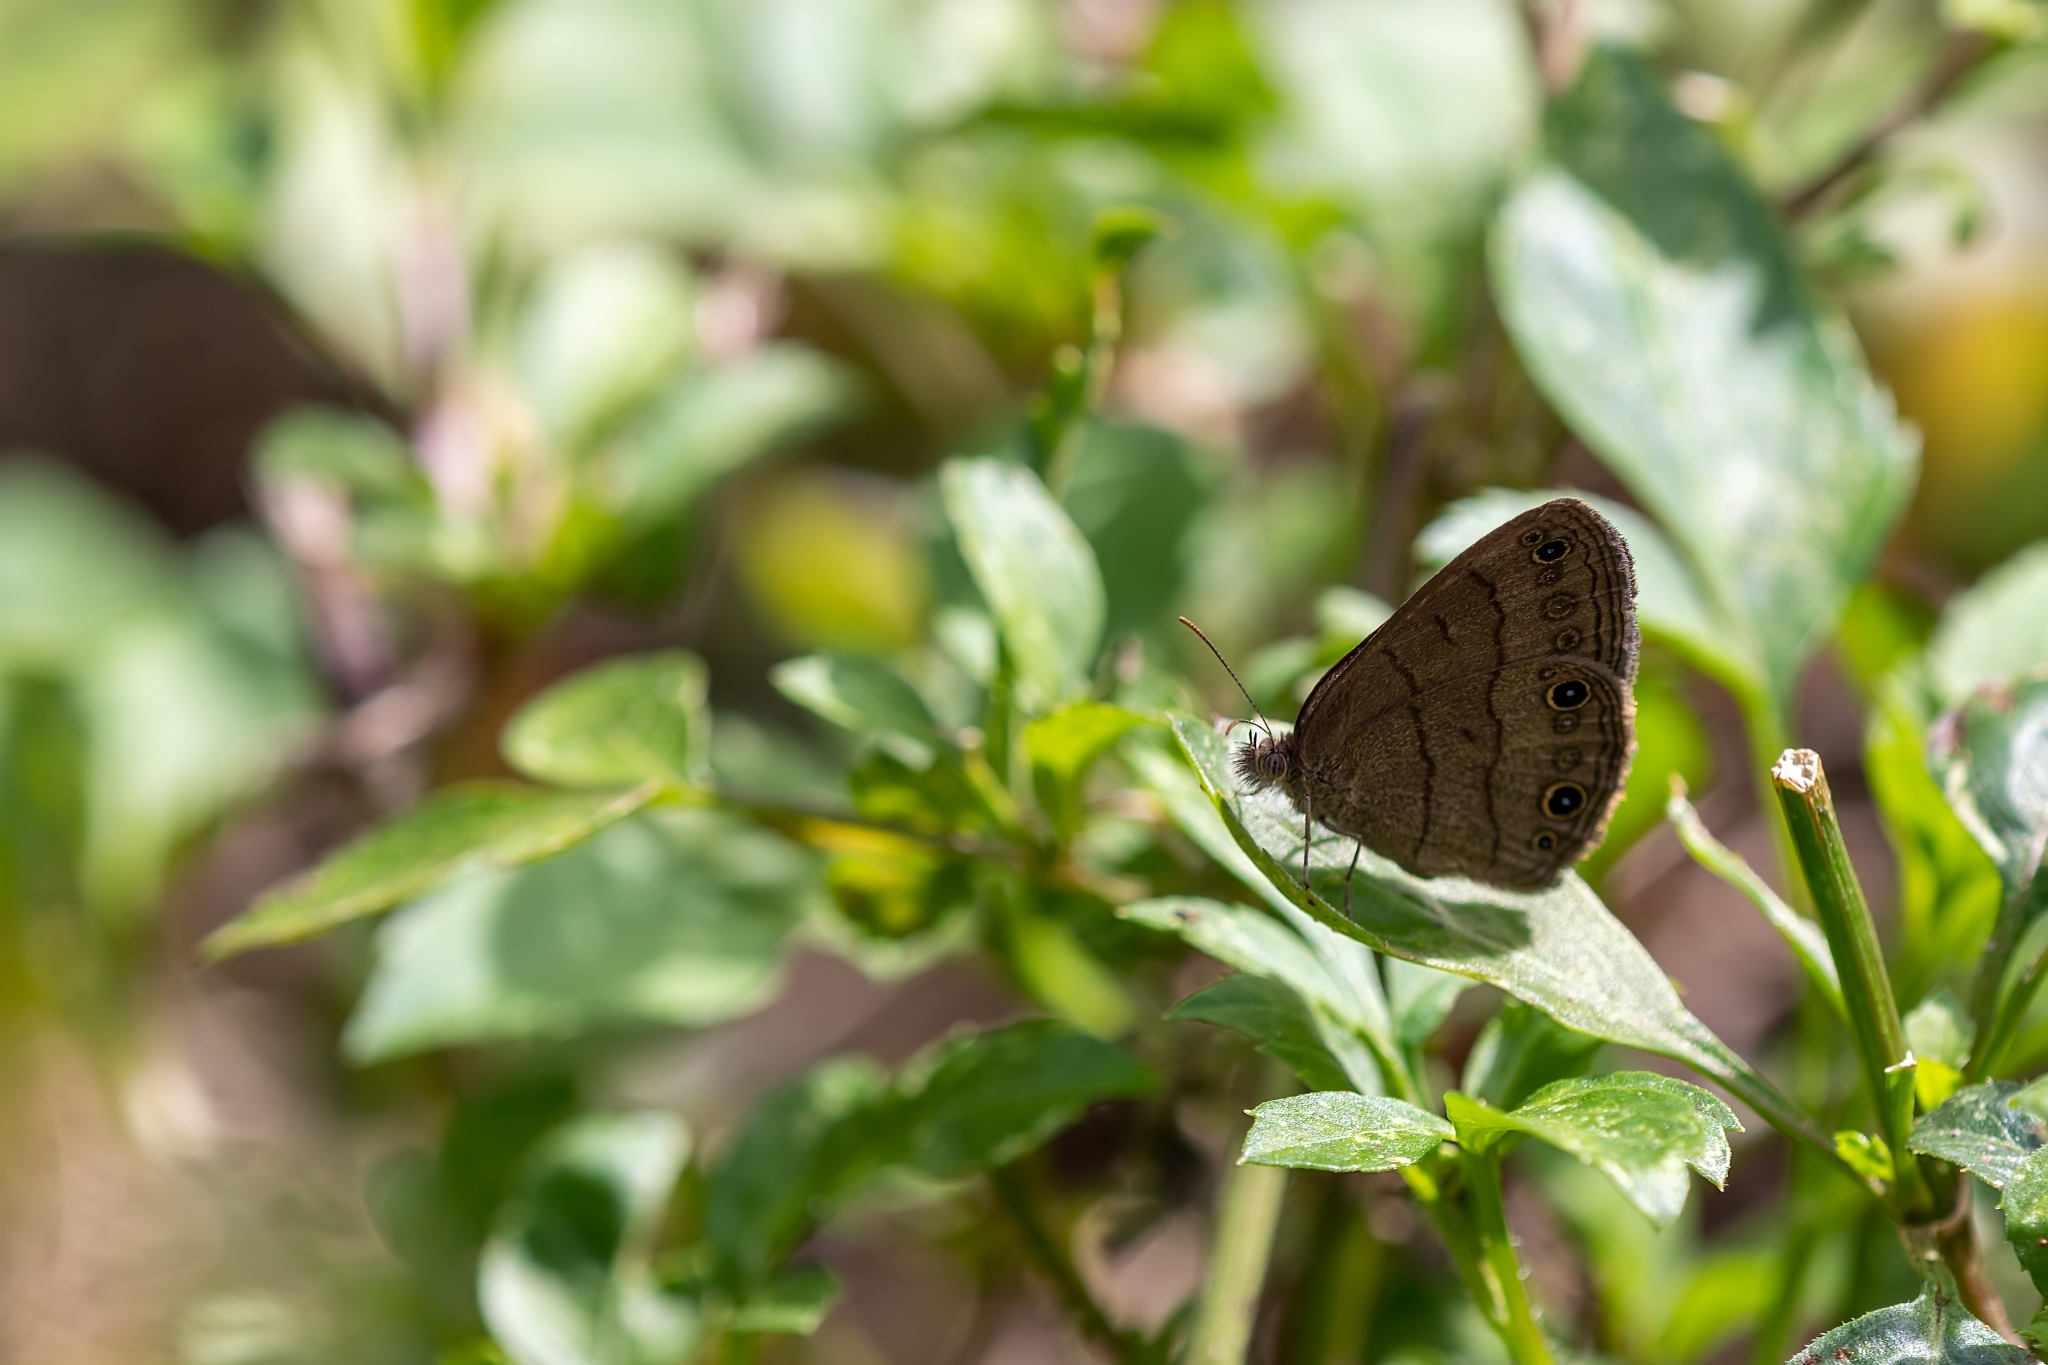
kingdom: Animalia
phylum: Arthropoda
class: Insecta
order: Lepidoptera
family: Nymphalidae
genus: Hermeuptychia
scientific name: Hermeuptychia hermes
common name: Hermes satyr
